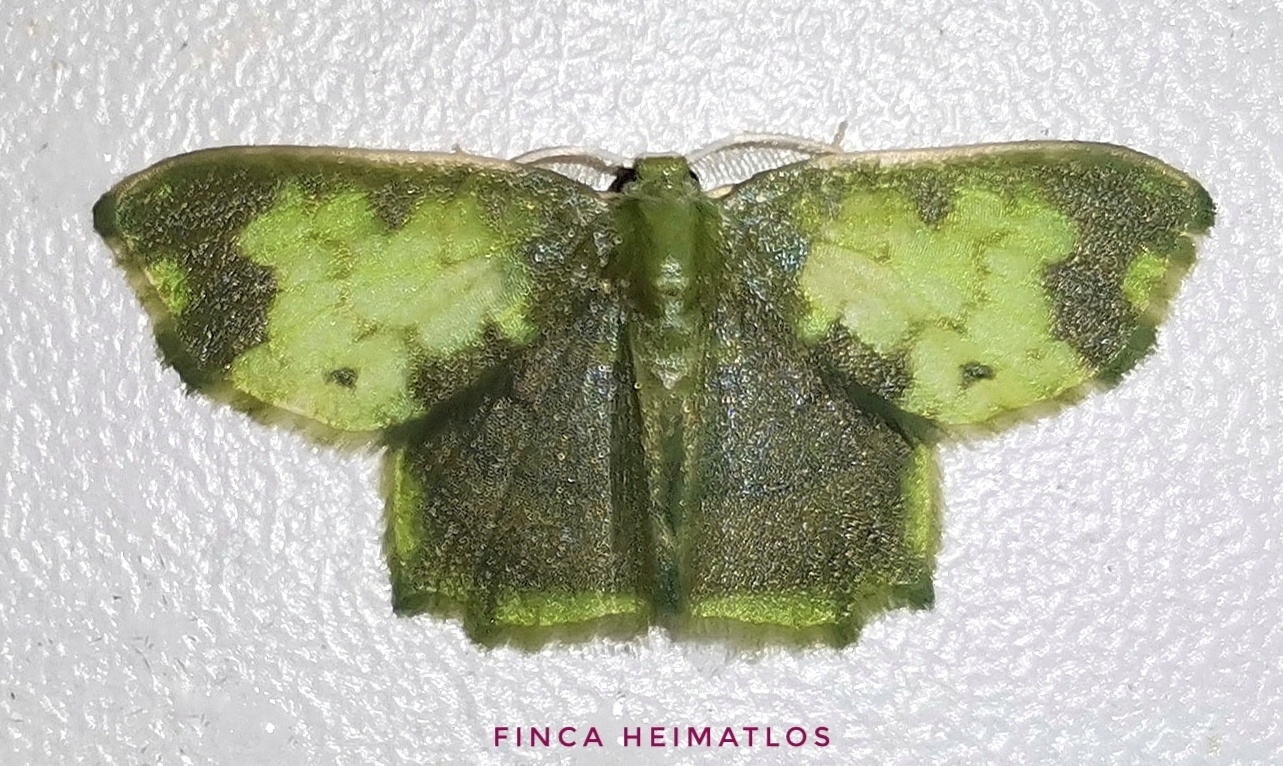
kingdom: Animalia
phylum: Arthropoda
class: Insecta
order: Lepidoptera
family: Geometridae
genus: Hydata
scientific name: Hydata povera
